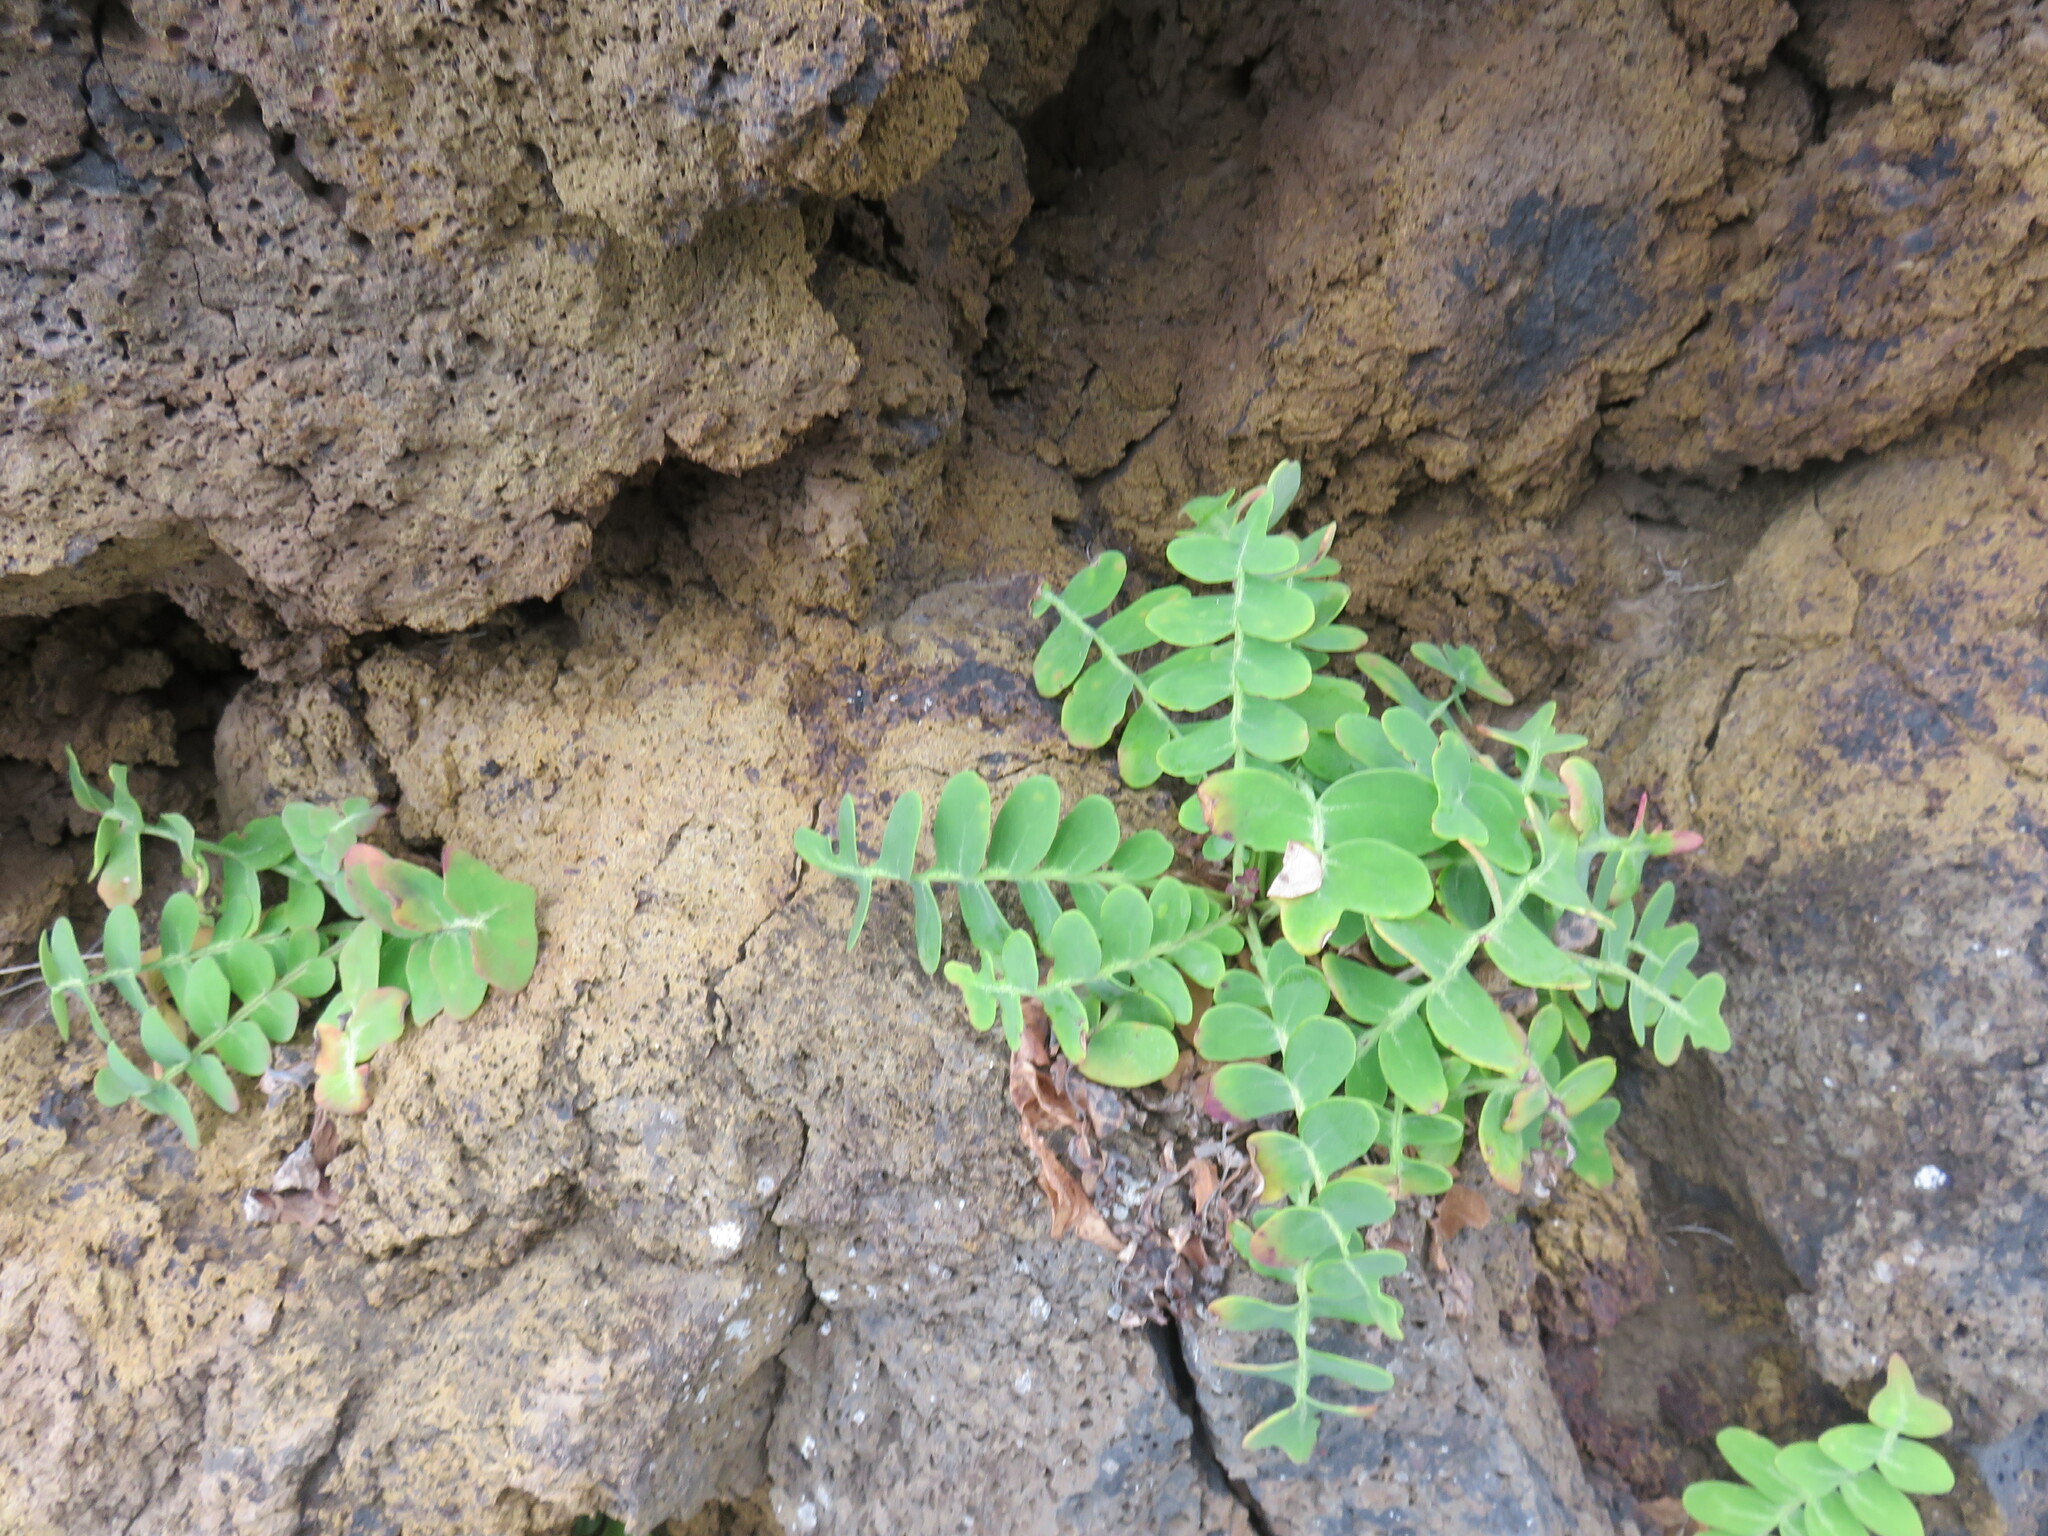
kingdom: Plantae
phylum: Tracheophyta
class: Magnoliopsida
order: Asterales
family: Asteraceae
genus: Sonchus
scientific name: Sonchus latifolius
